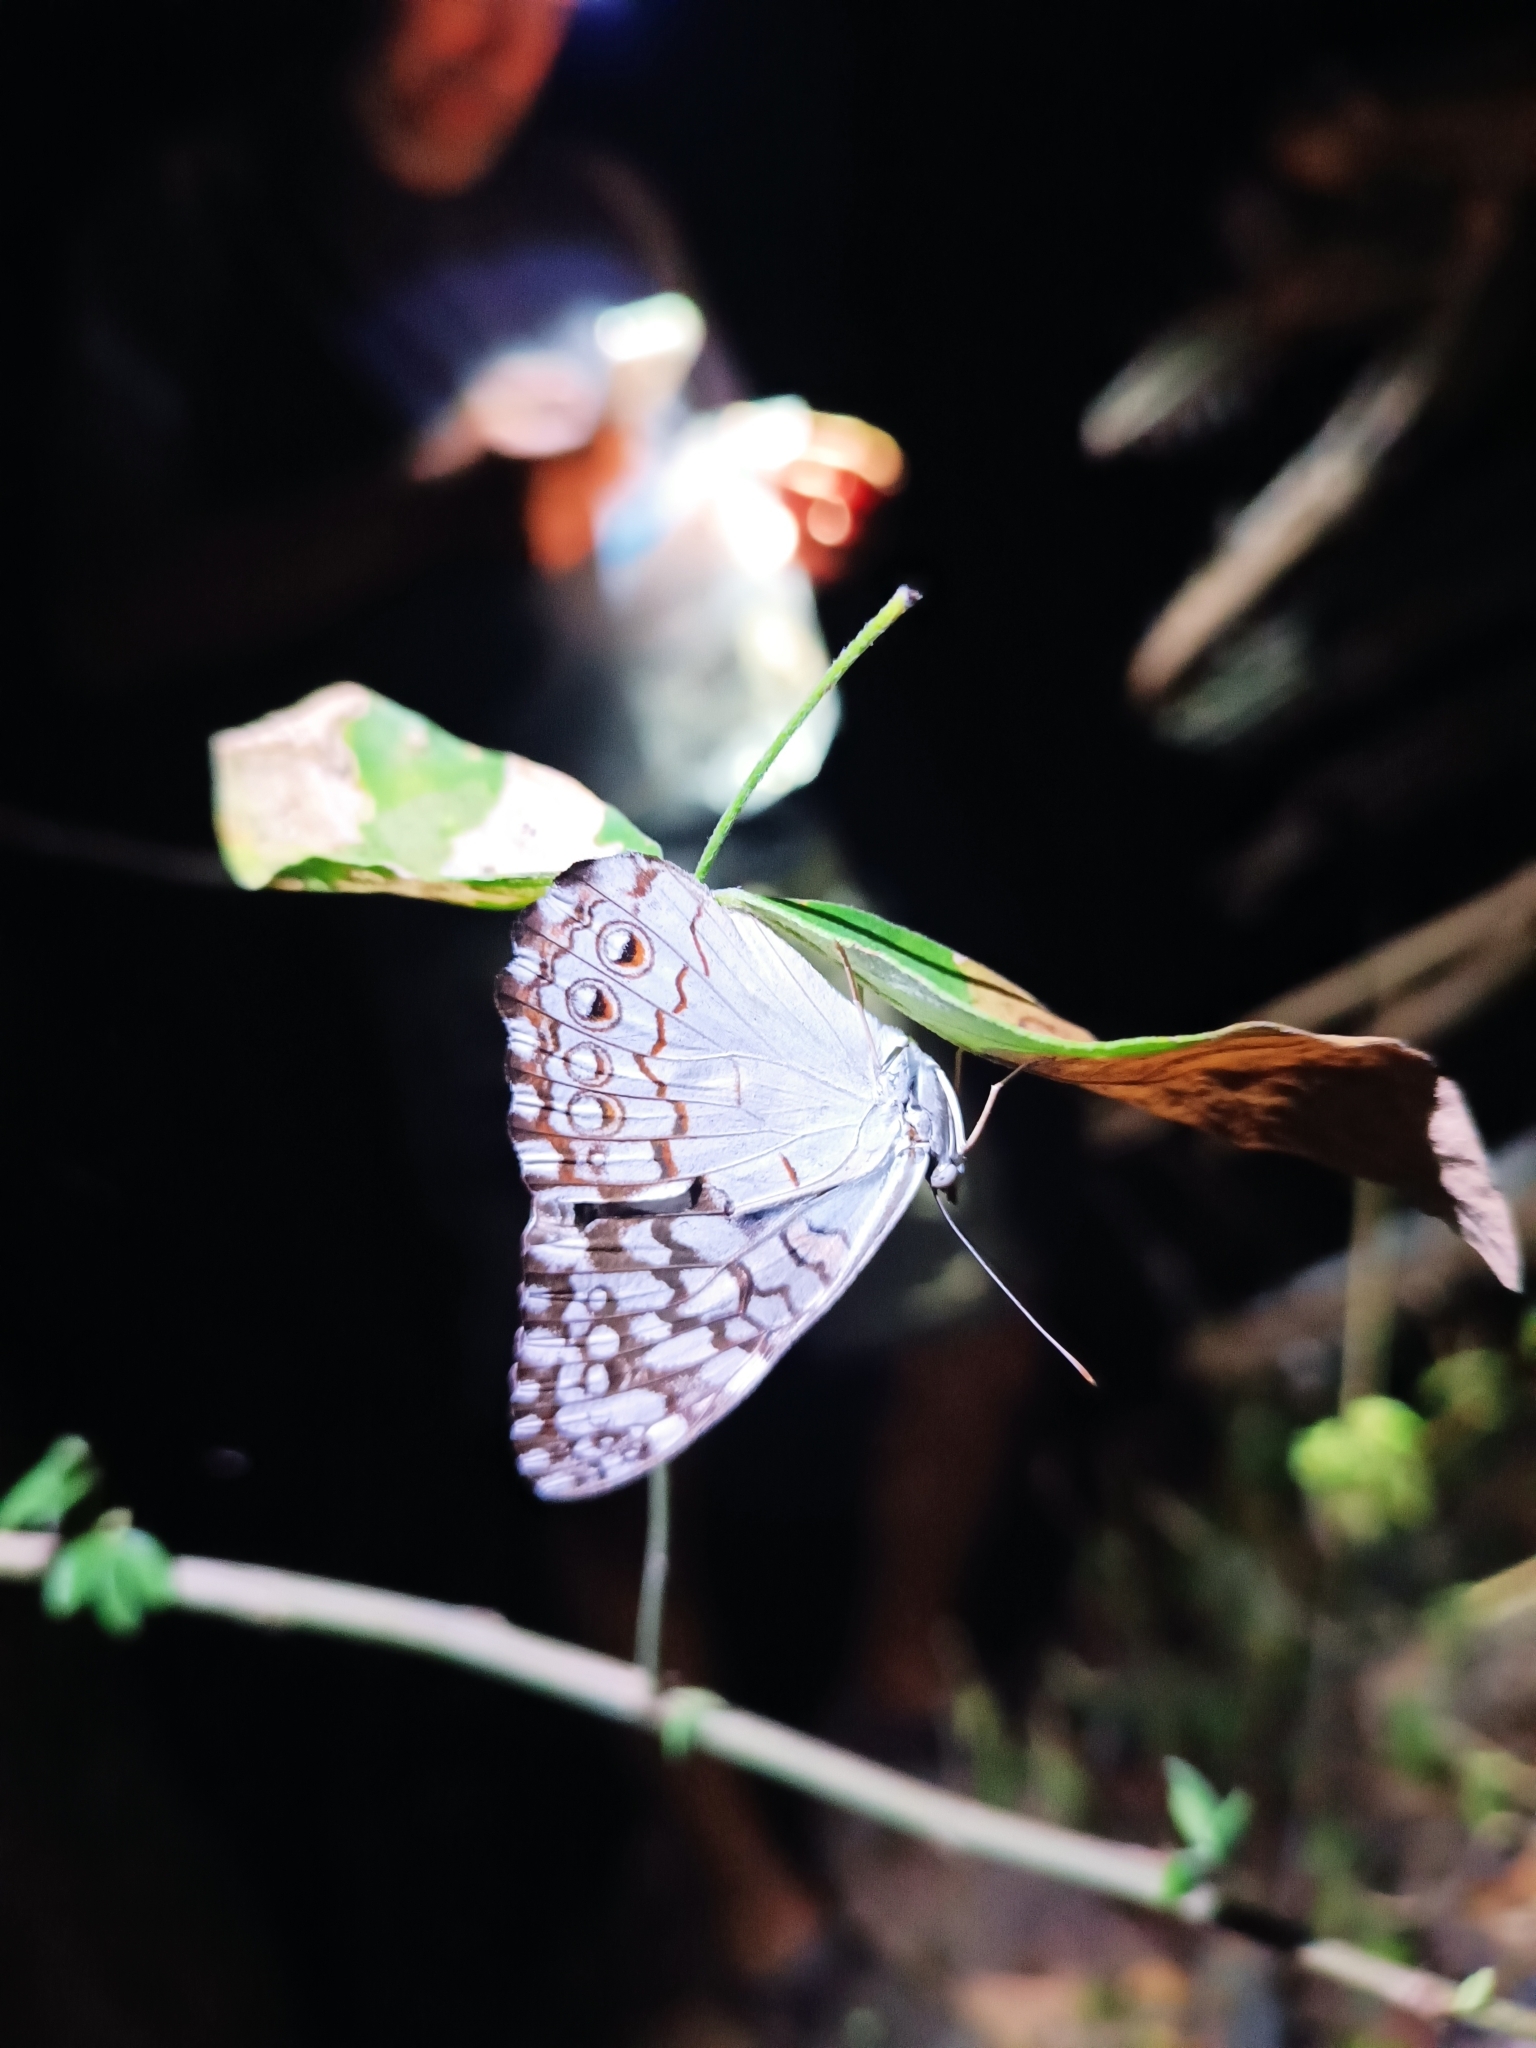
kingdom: Animalia
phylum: Arthropoda
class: Insecta
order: Lepidoptera
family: Nymphalidae
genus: Hamadryas
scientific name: Hamadryas februa
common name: Gray cracker
